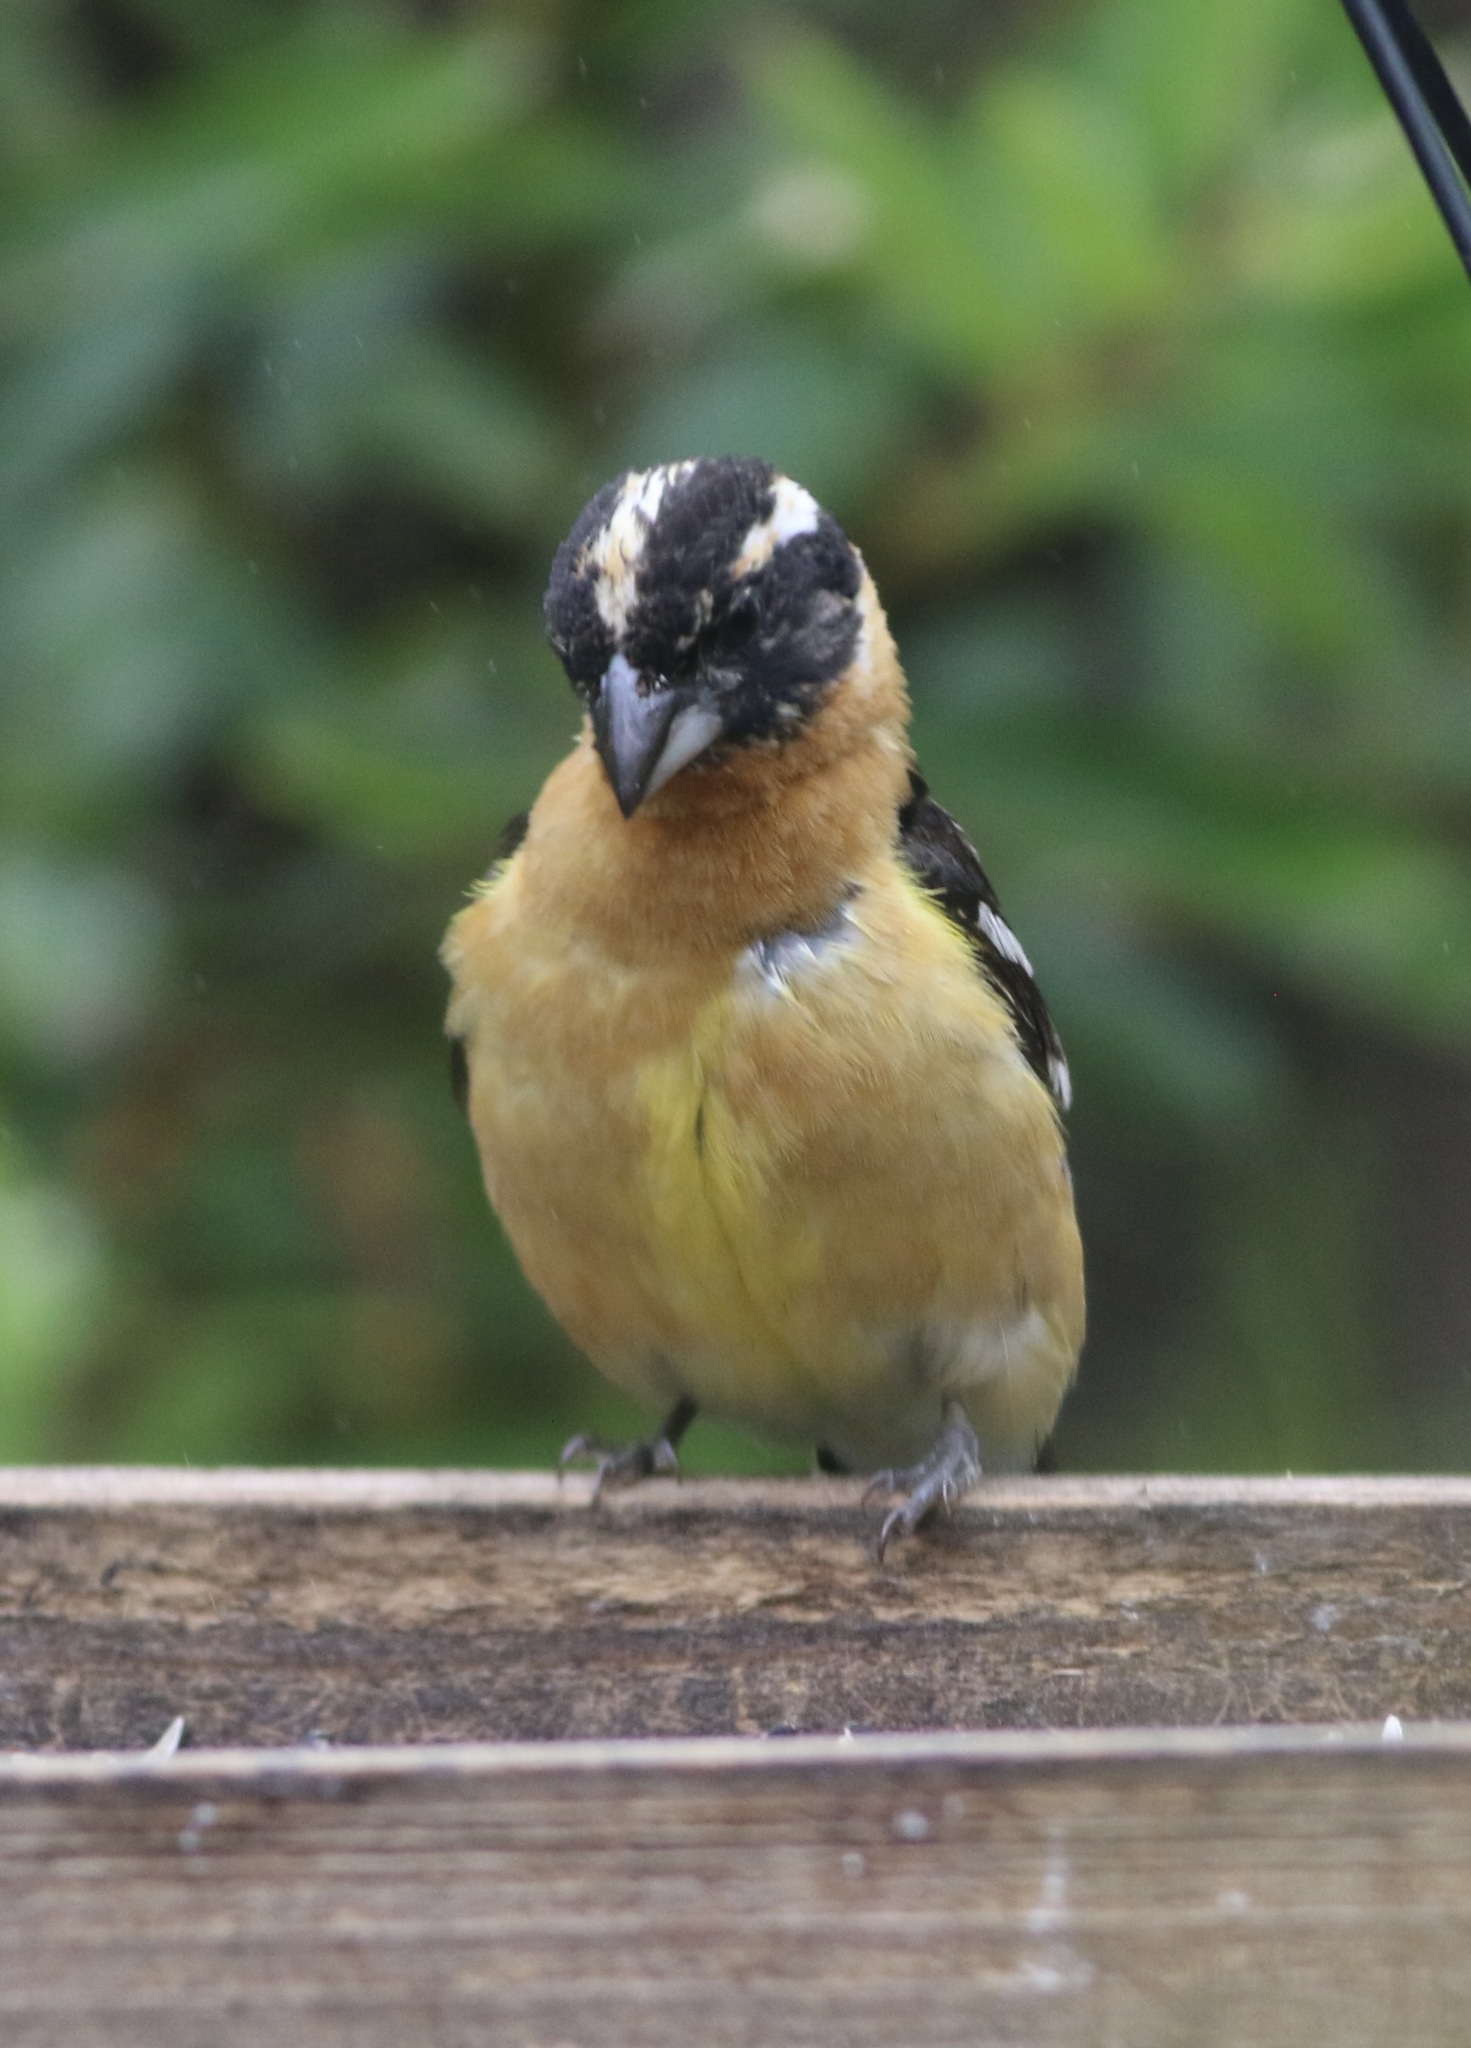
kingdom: Animalia
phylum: Chordata
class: Aves
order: Passeriformes
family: Cardinalidae
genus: Pheucticus
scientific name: Pheucticus melanocephalus
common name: Black-headed grosbeak
